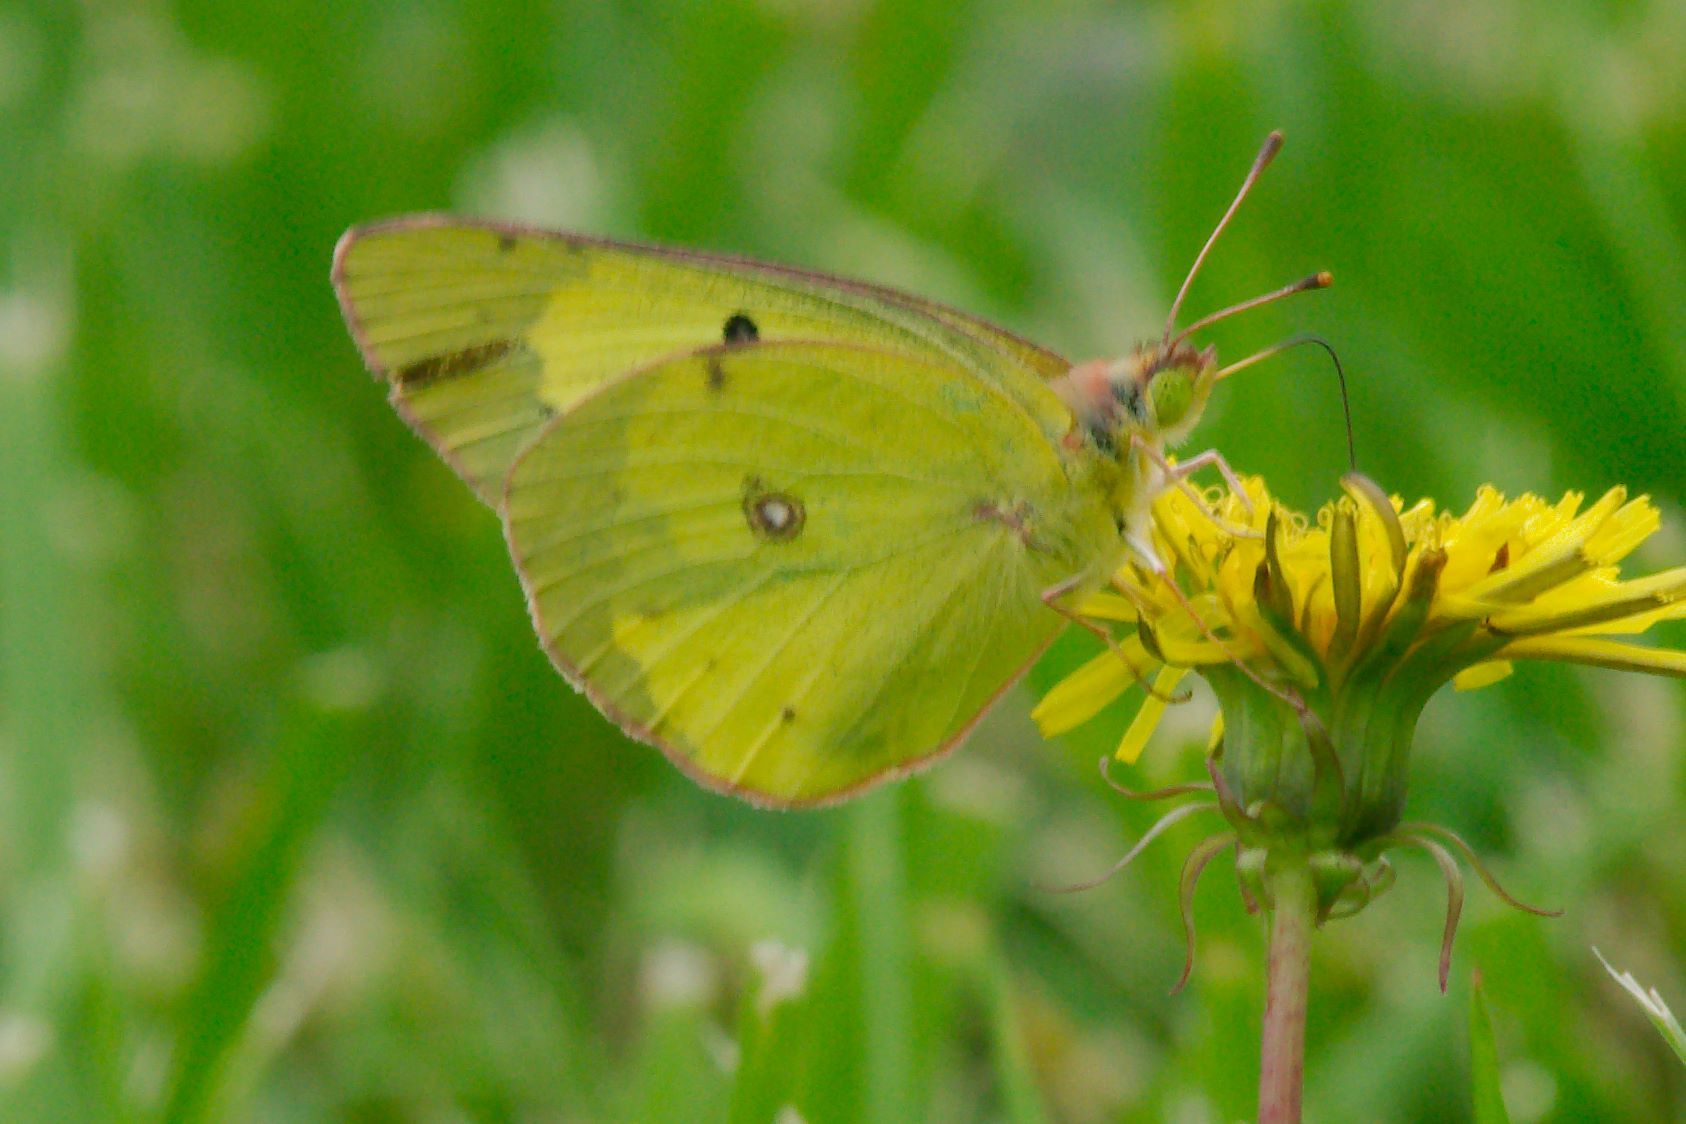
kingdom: Animalia
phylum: Arthropoda
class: Insecta
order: Lepidoptera
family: Pieridae
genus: Colias
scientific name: Colias philodice
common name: Clouded sulphur
